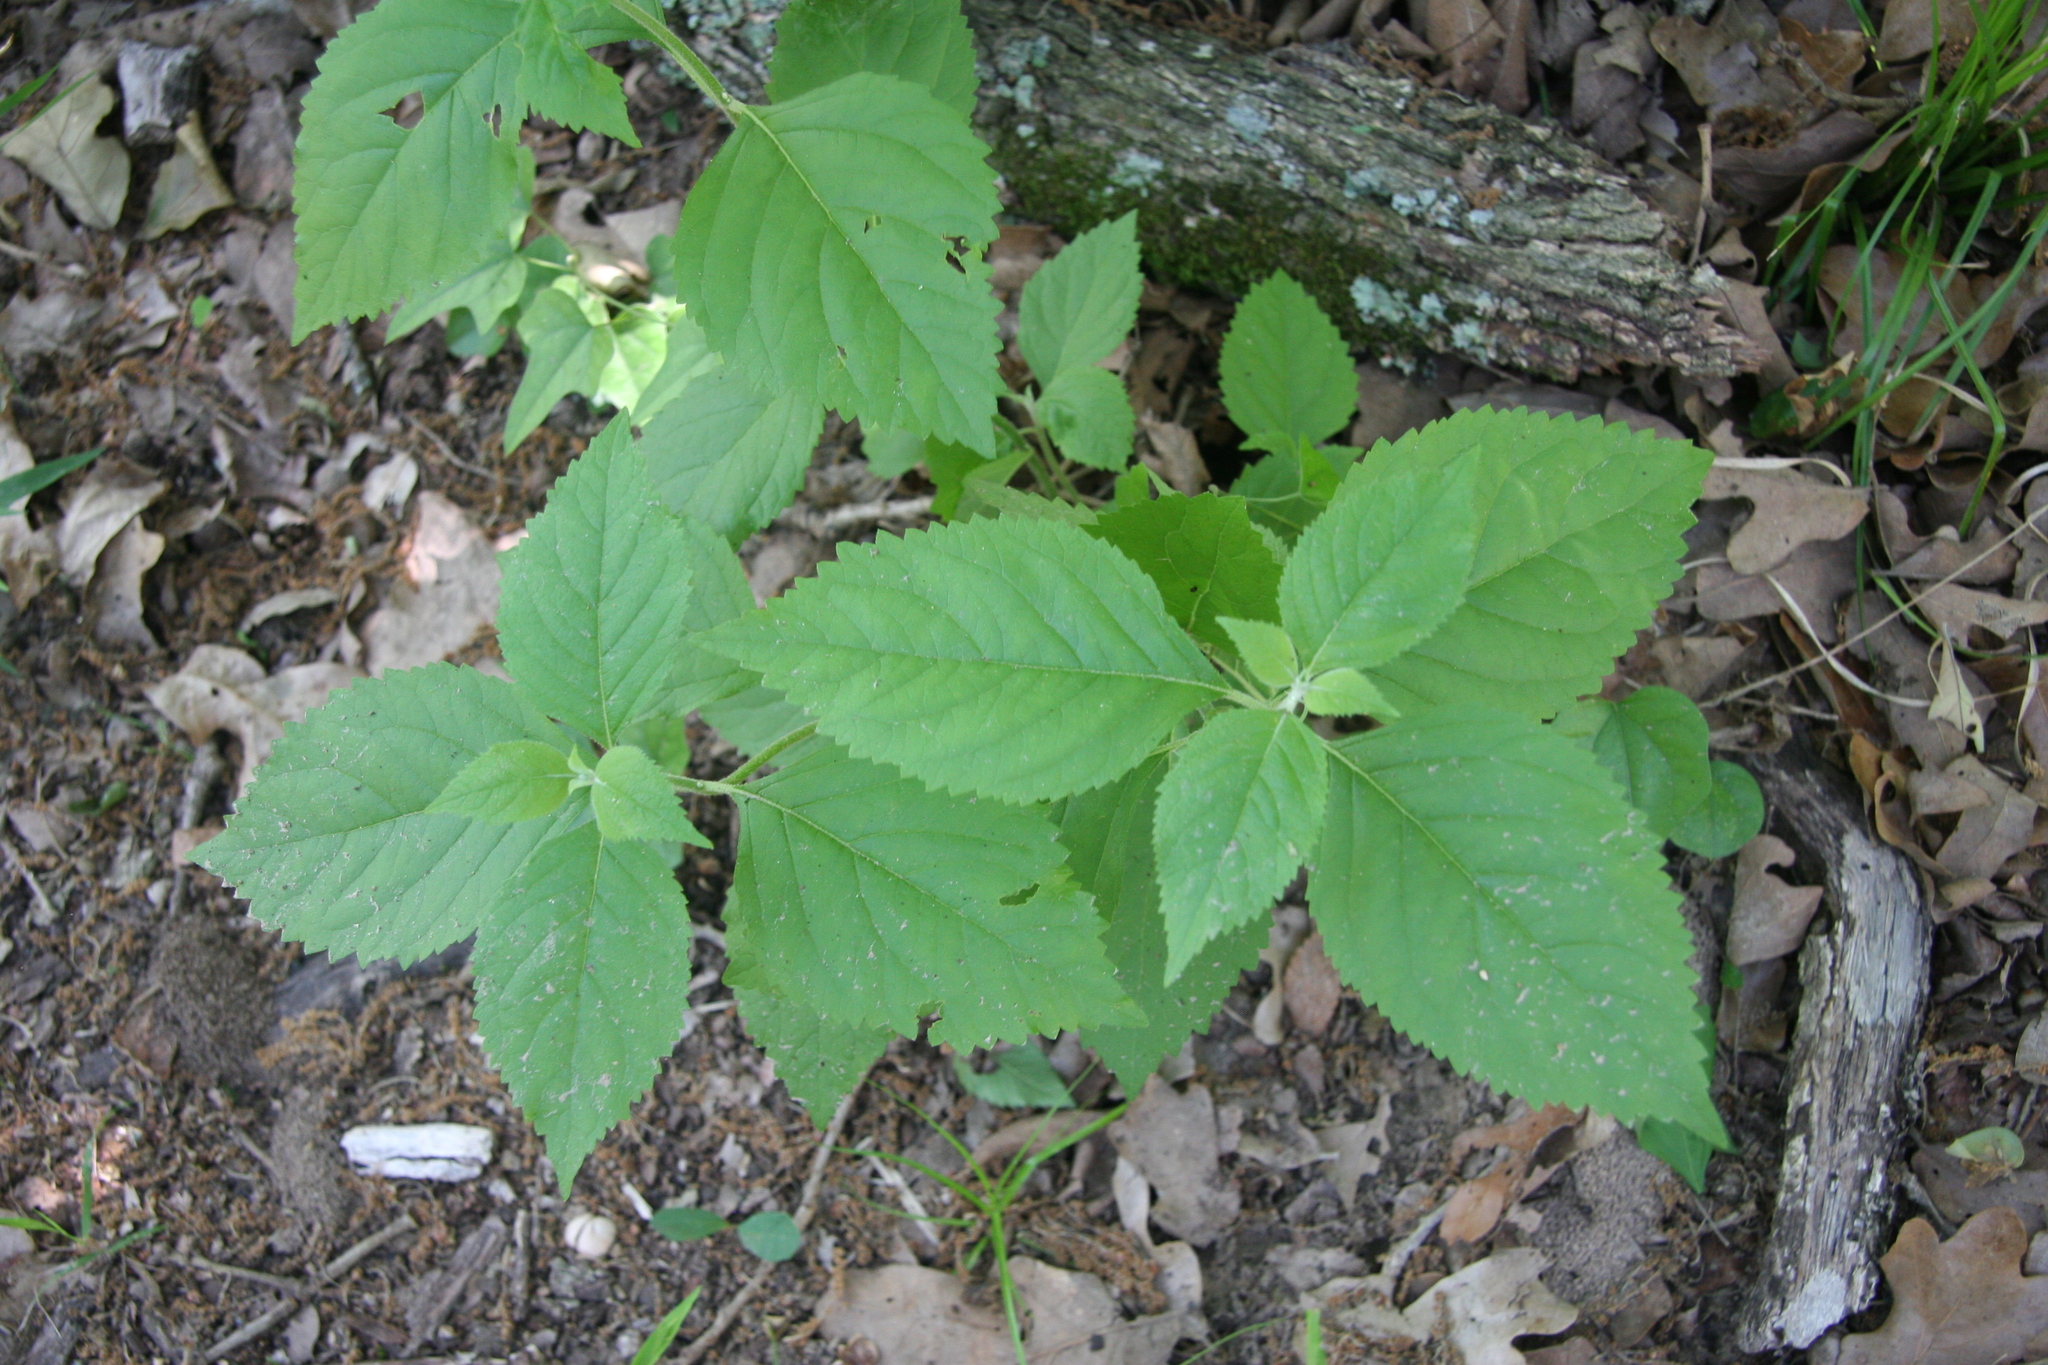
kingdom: Plantae
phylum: Tracheophyta
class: Magnoliopsida
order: Lamiales
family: Lamiaceae
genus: Callicarpa
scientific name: Callicarpa americana
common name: American beautyberry
